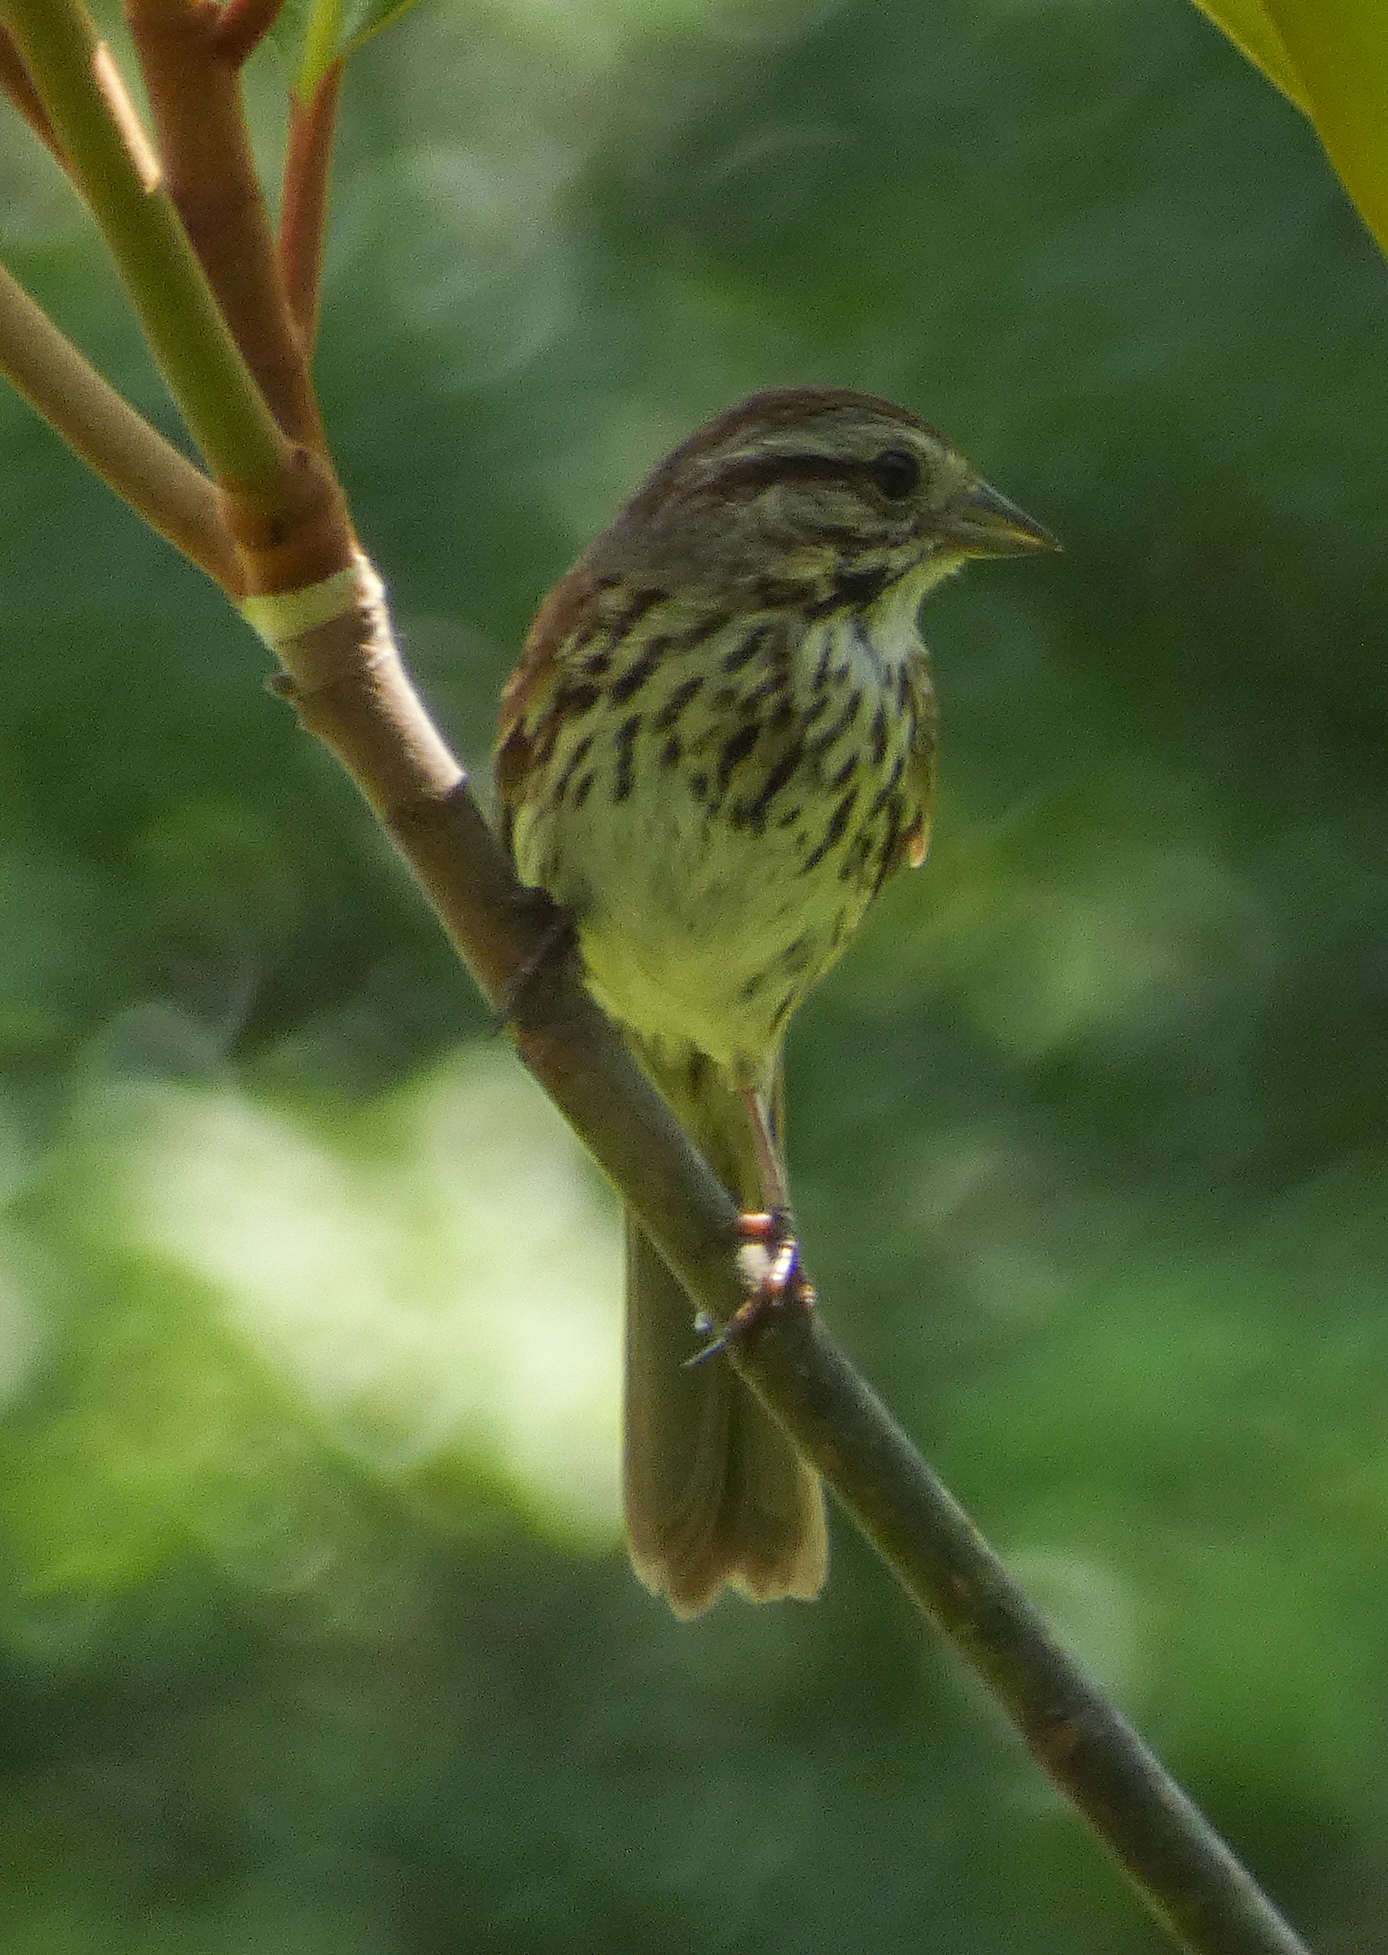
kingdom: Animalia
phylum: Chordata
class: Aves
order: Passeriformes
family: Passerellidae
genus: Melospiza
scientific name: Melospiza melodia
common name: Song sparrow
